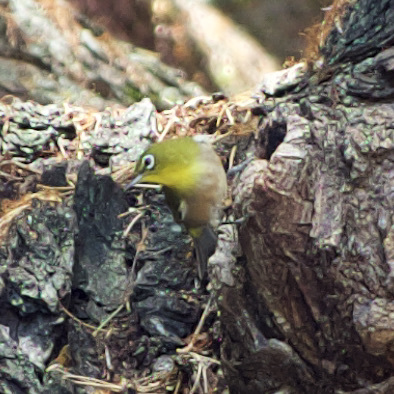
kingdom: Animalia
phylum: Chordata
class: Aves
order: Passeriformes
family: Zosteropidae
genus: Zosterops
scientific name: Zosterops japonicus
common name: Japanese white-eye
